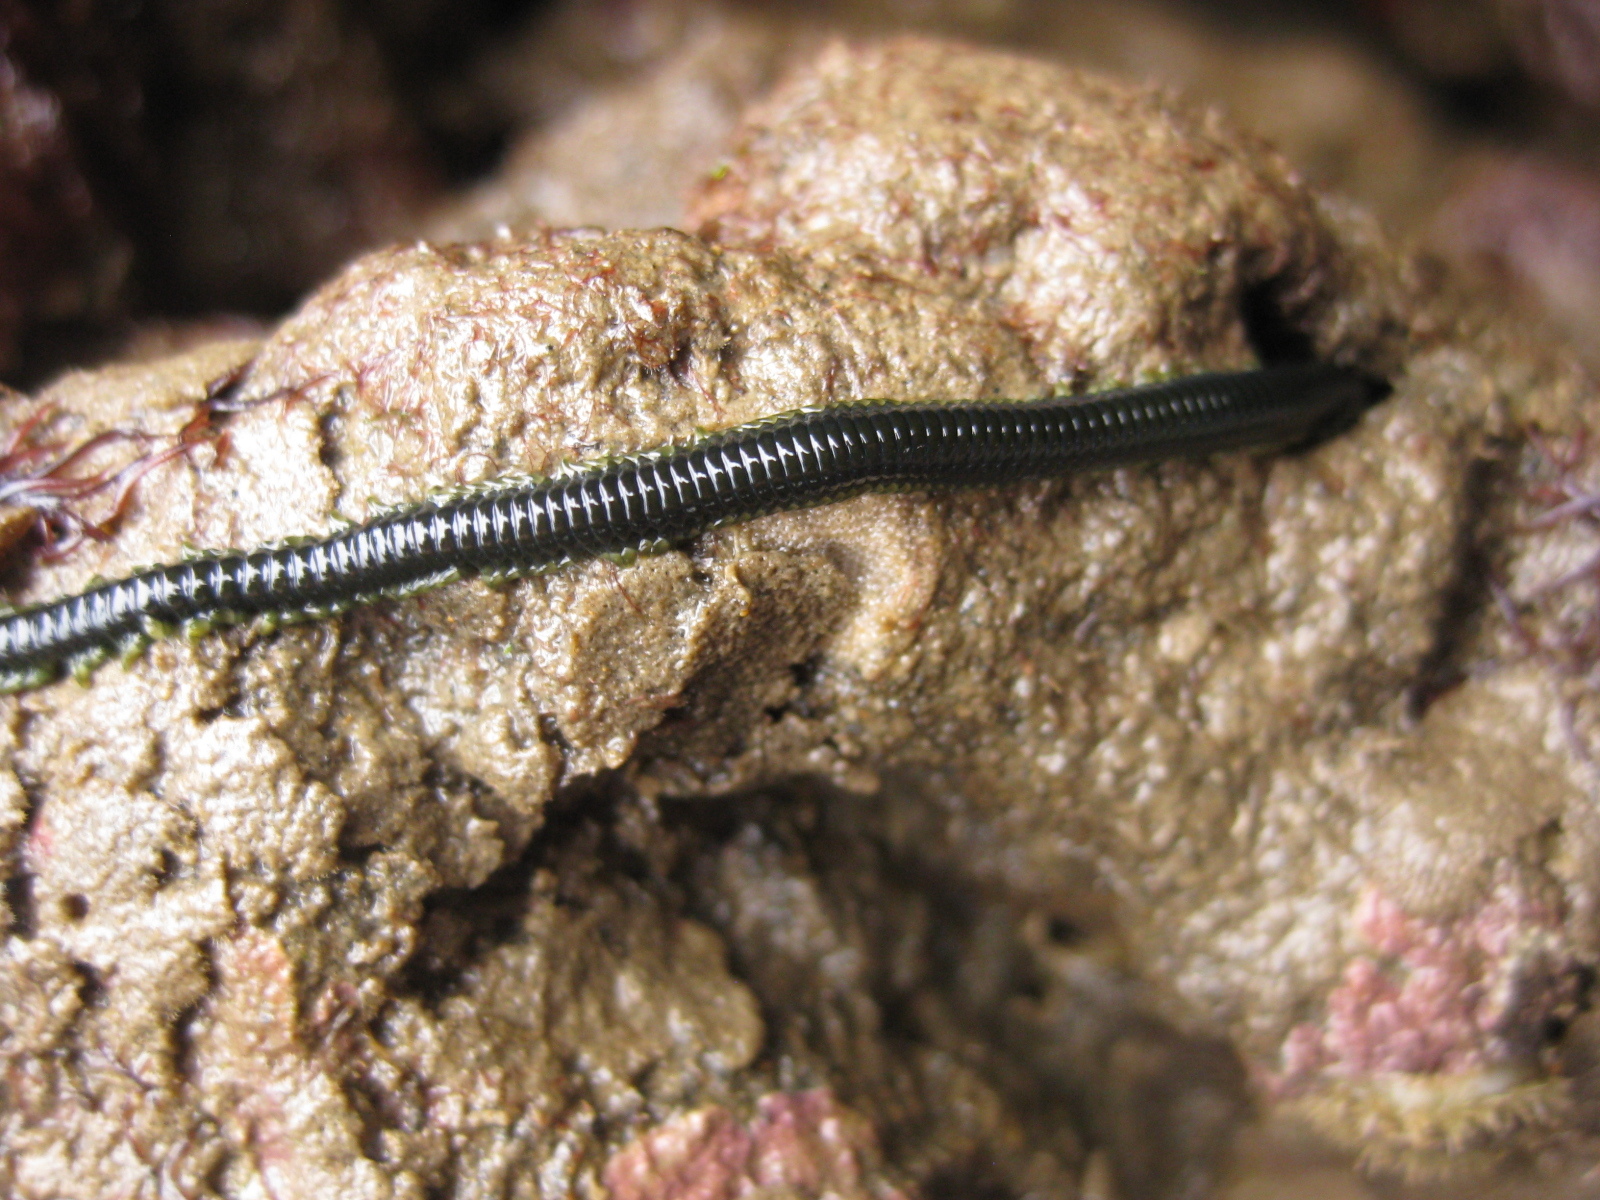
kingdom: Animalia
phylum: Annelida
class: Polychaeta
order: Phyllodocida
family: Phyllodocidae
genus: Eulalia
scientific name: Eulalia microphylla
